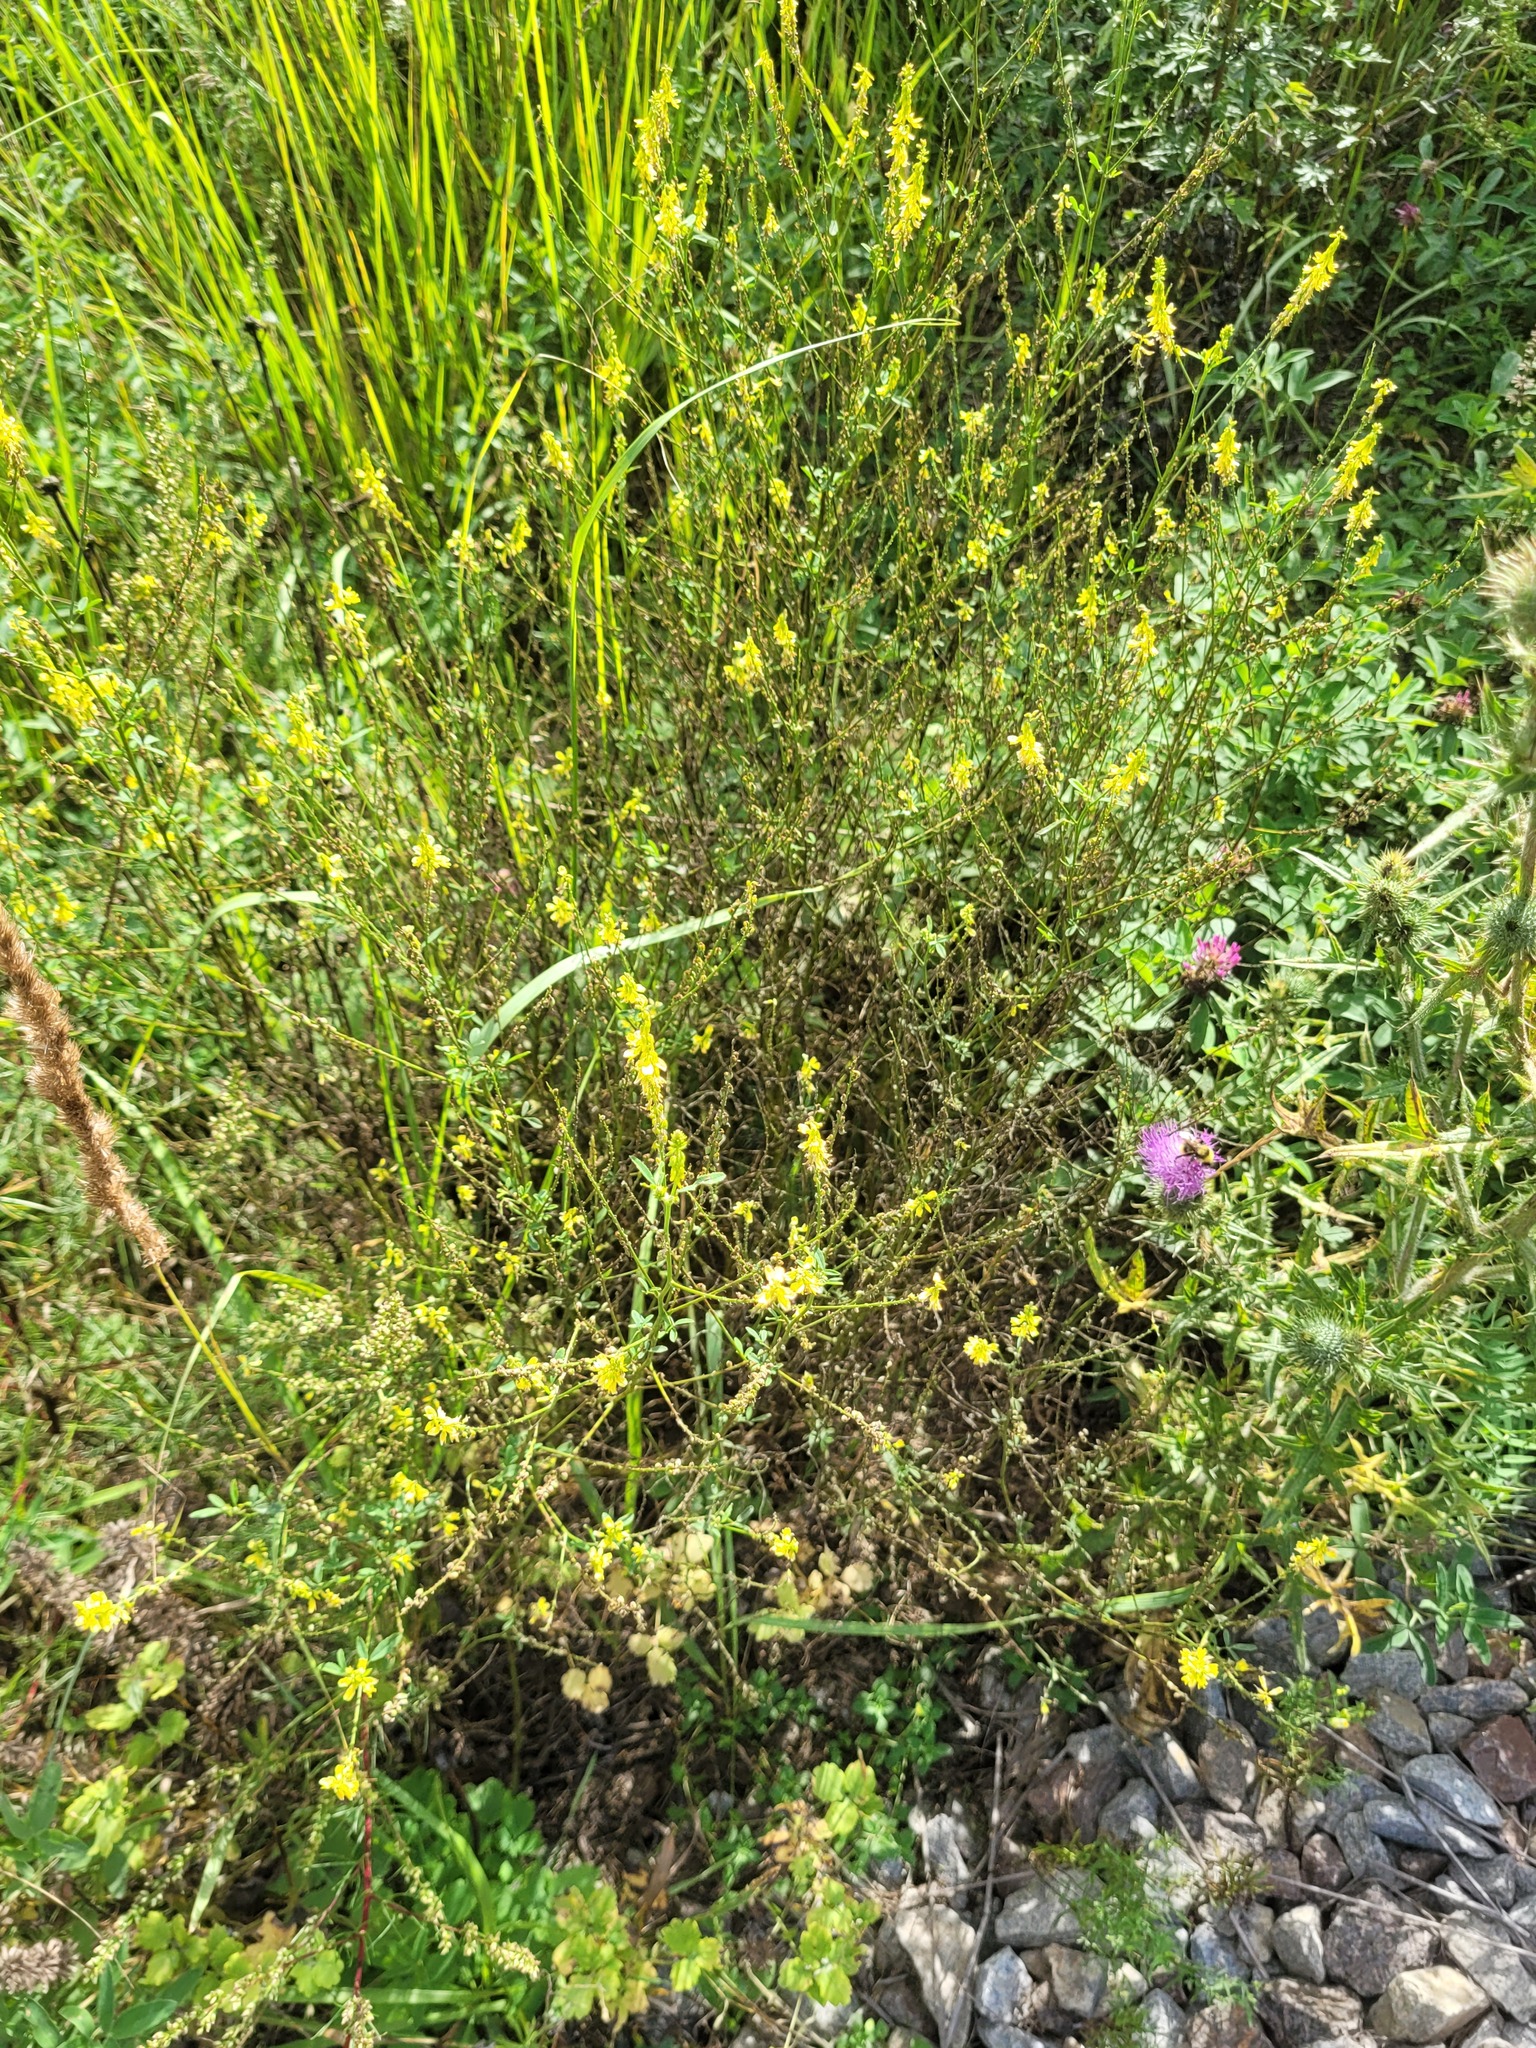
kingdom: Plantae
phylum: Tracheophyta
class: Magnoliopsida
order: Fabales
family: Fabaceae
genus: Melilotus
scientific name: Melilotus officinalis
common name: Sweetclover
